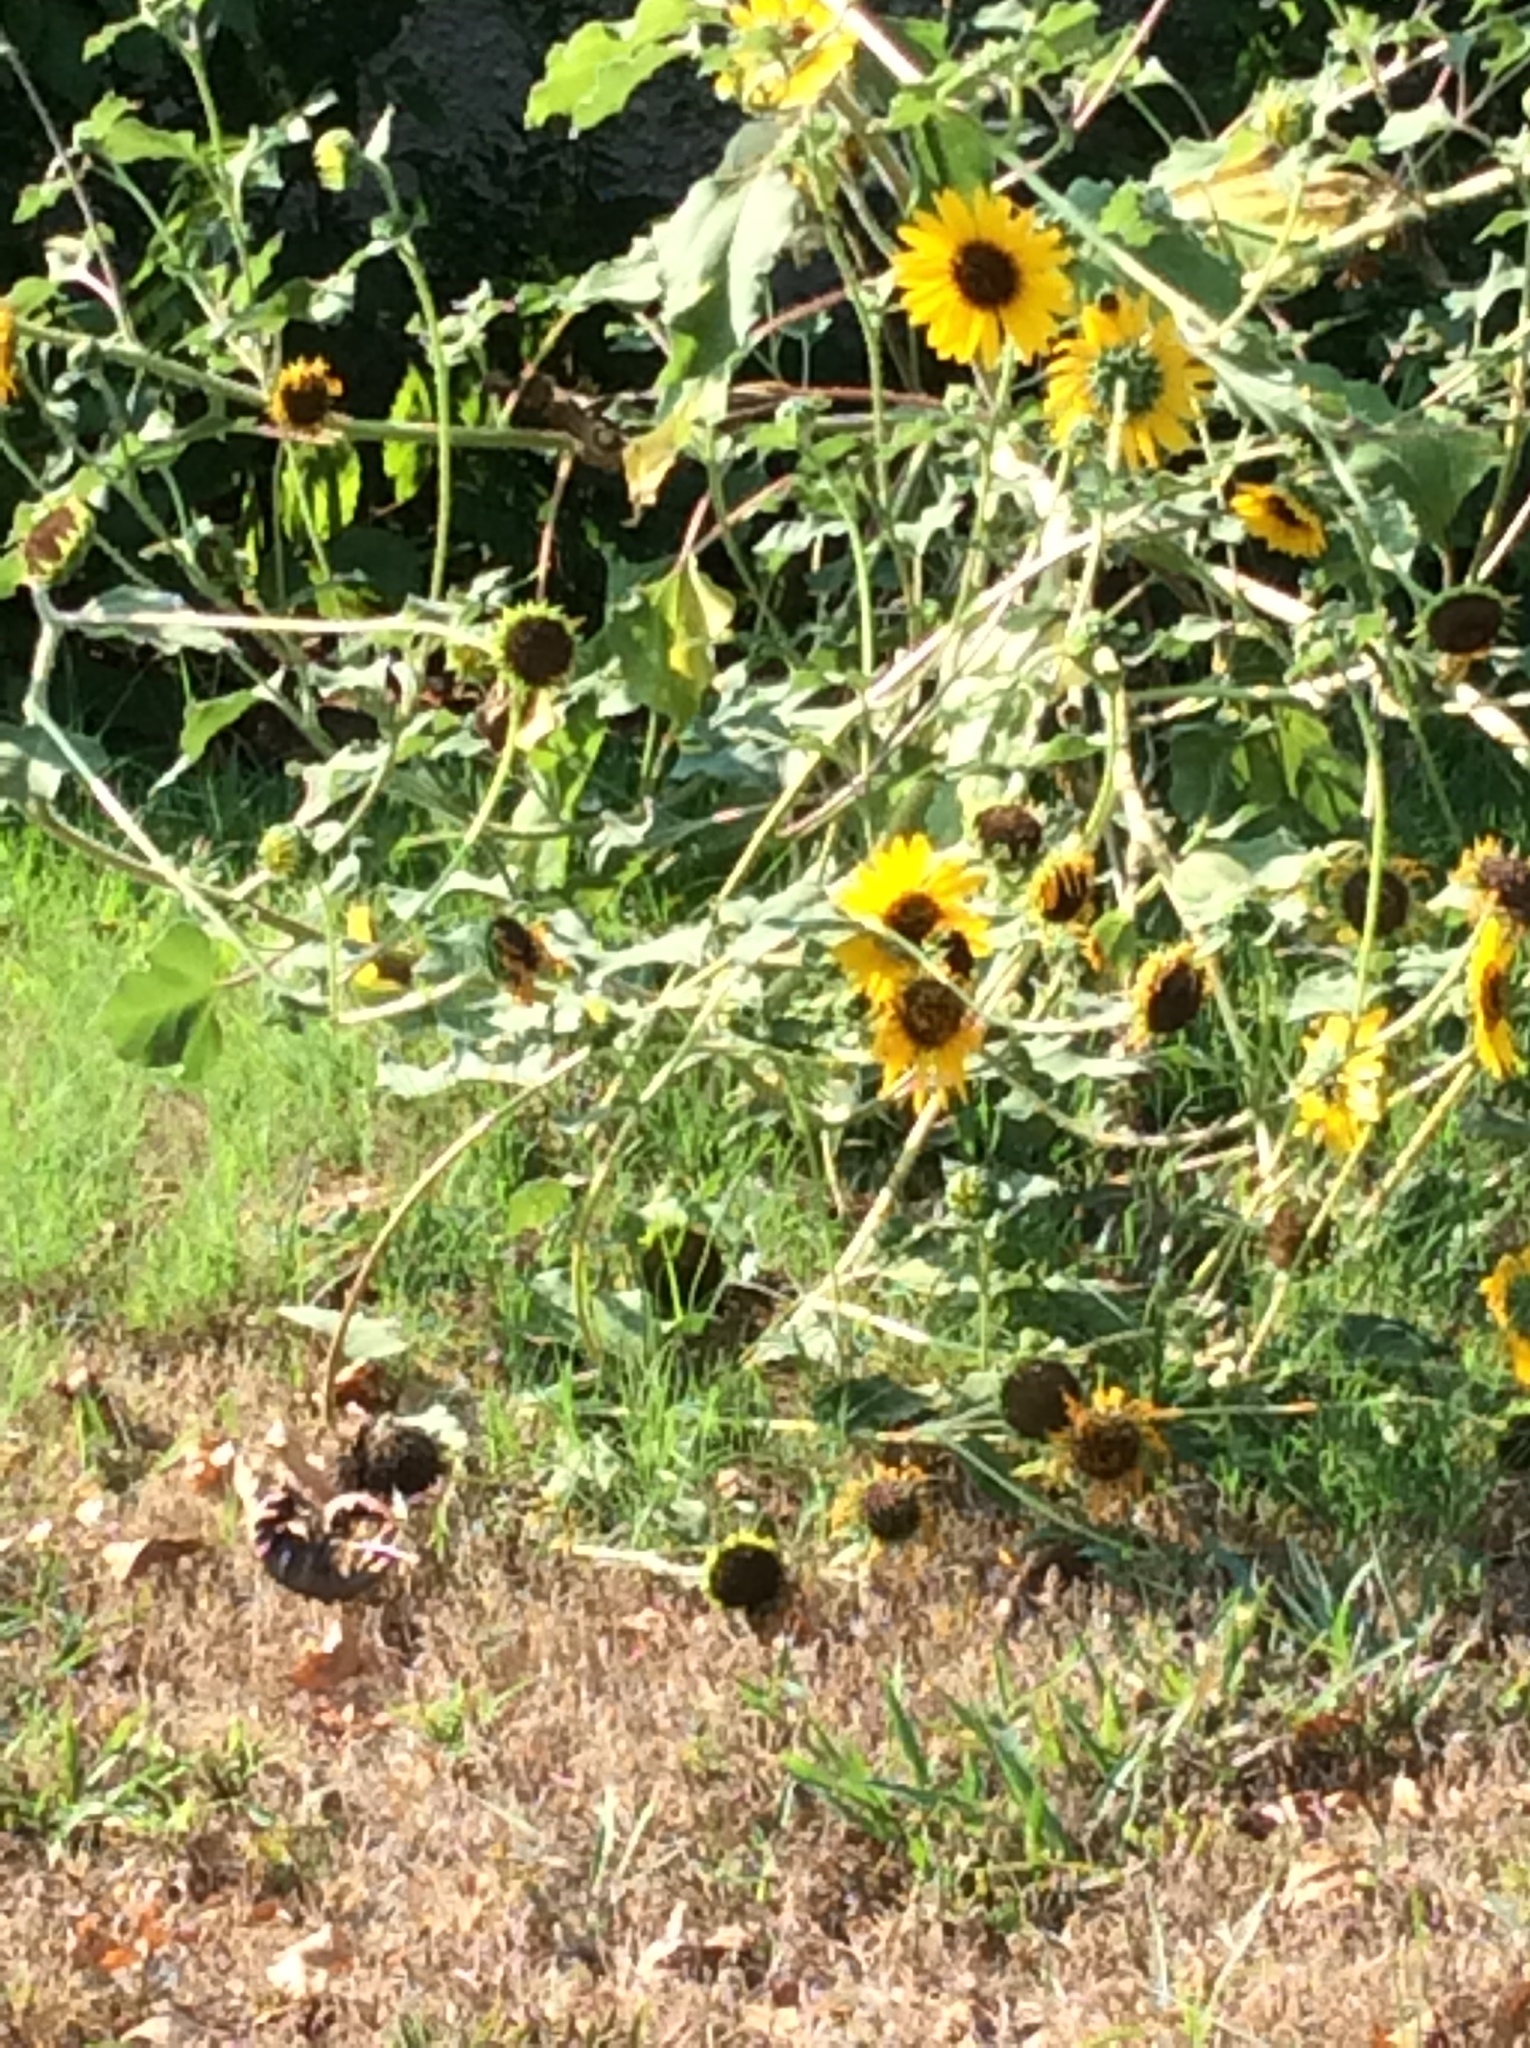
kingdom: Plantae
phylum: Tracheophyta
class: Magnoliopsida
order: Asterales
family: Asteraceae
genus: Helianthus
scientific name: Helianthus annuus
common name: Sunflower
